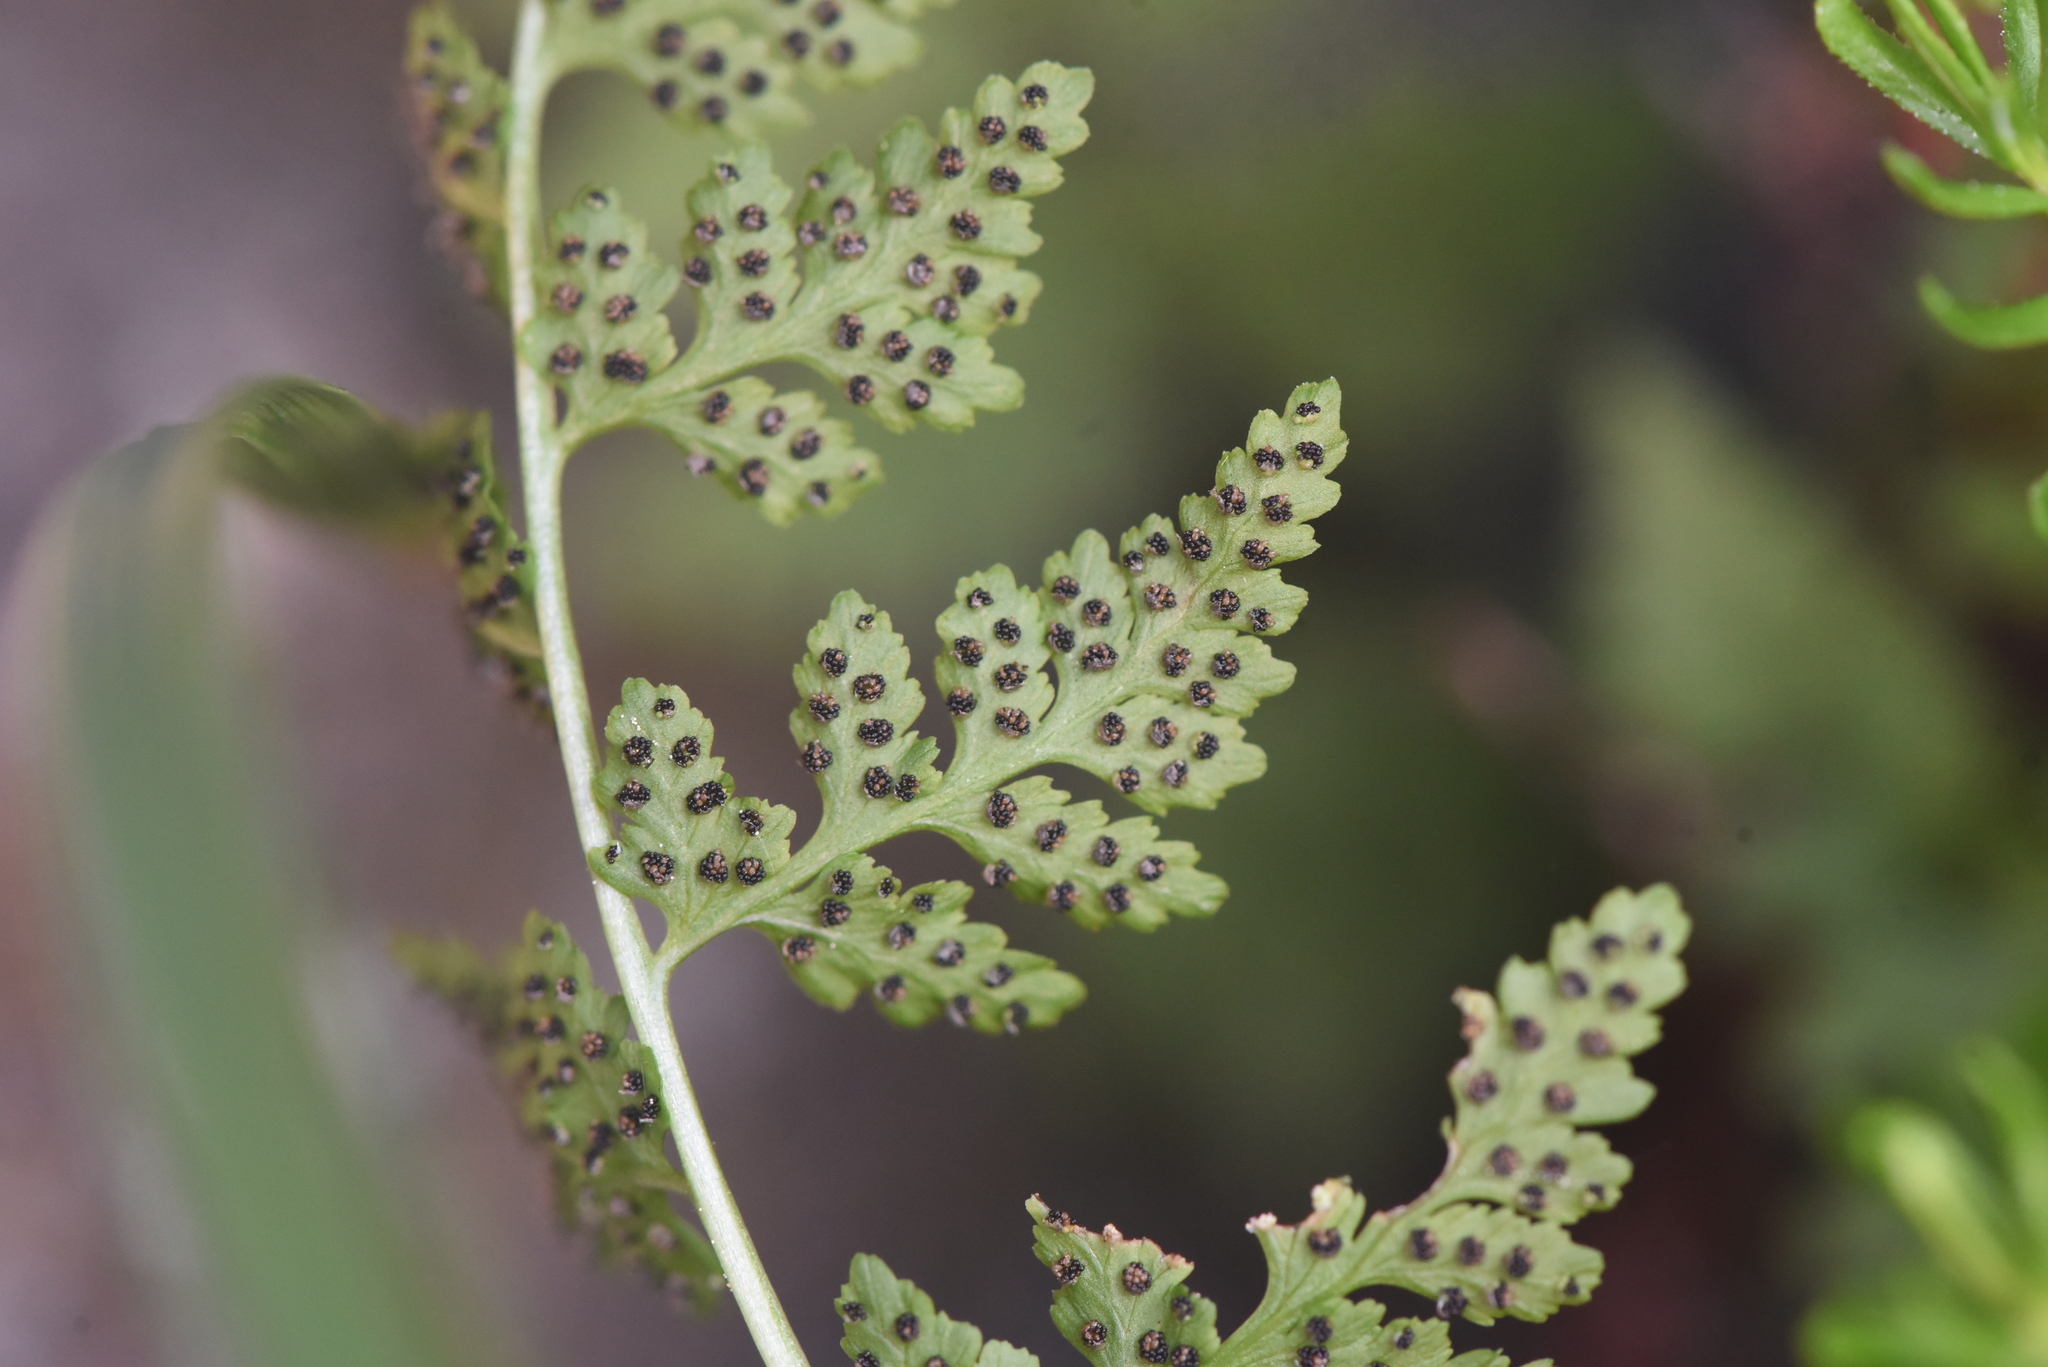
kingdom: Plantae
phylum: Tracheophyta
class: Polypodiopsida
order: Polypodiales
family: Cystopteridaceae
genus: Cystopteris
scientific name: Cystopteris fragilis
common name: Brittle bladder fern
